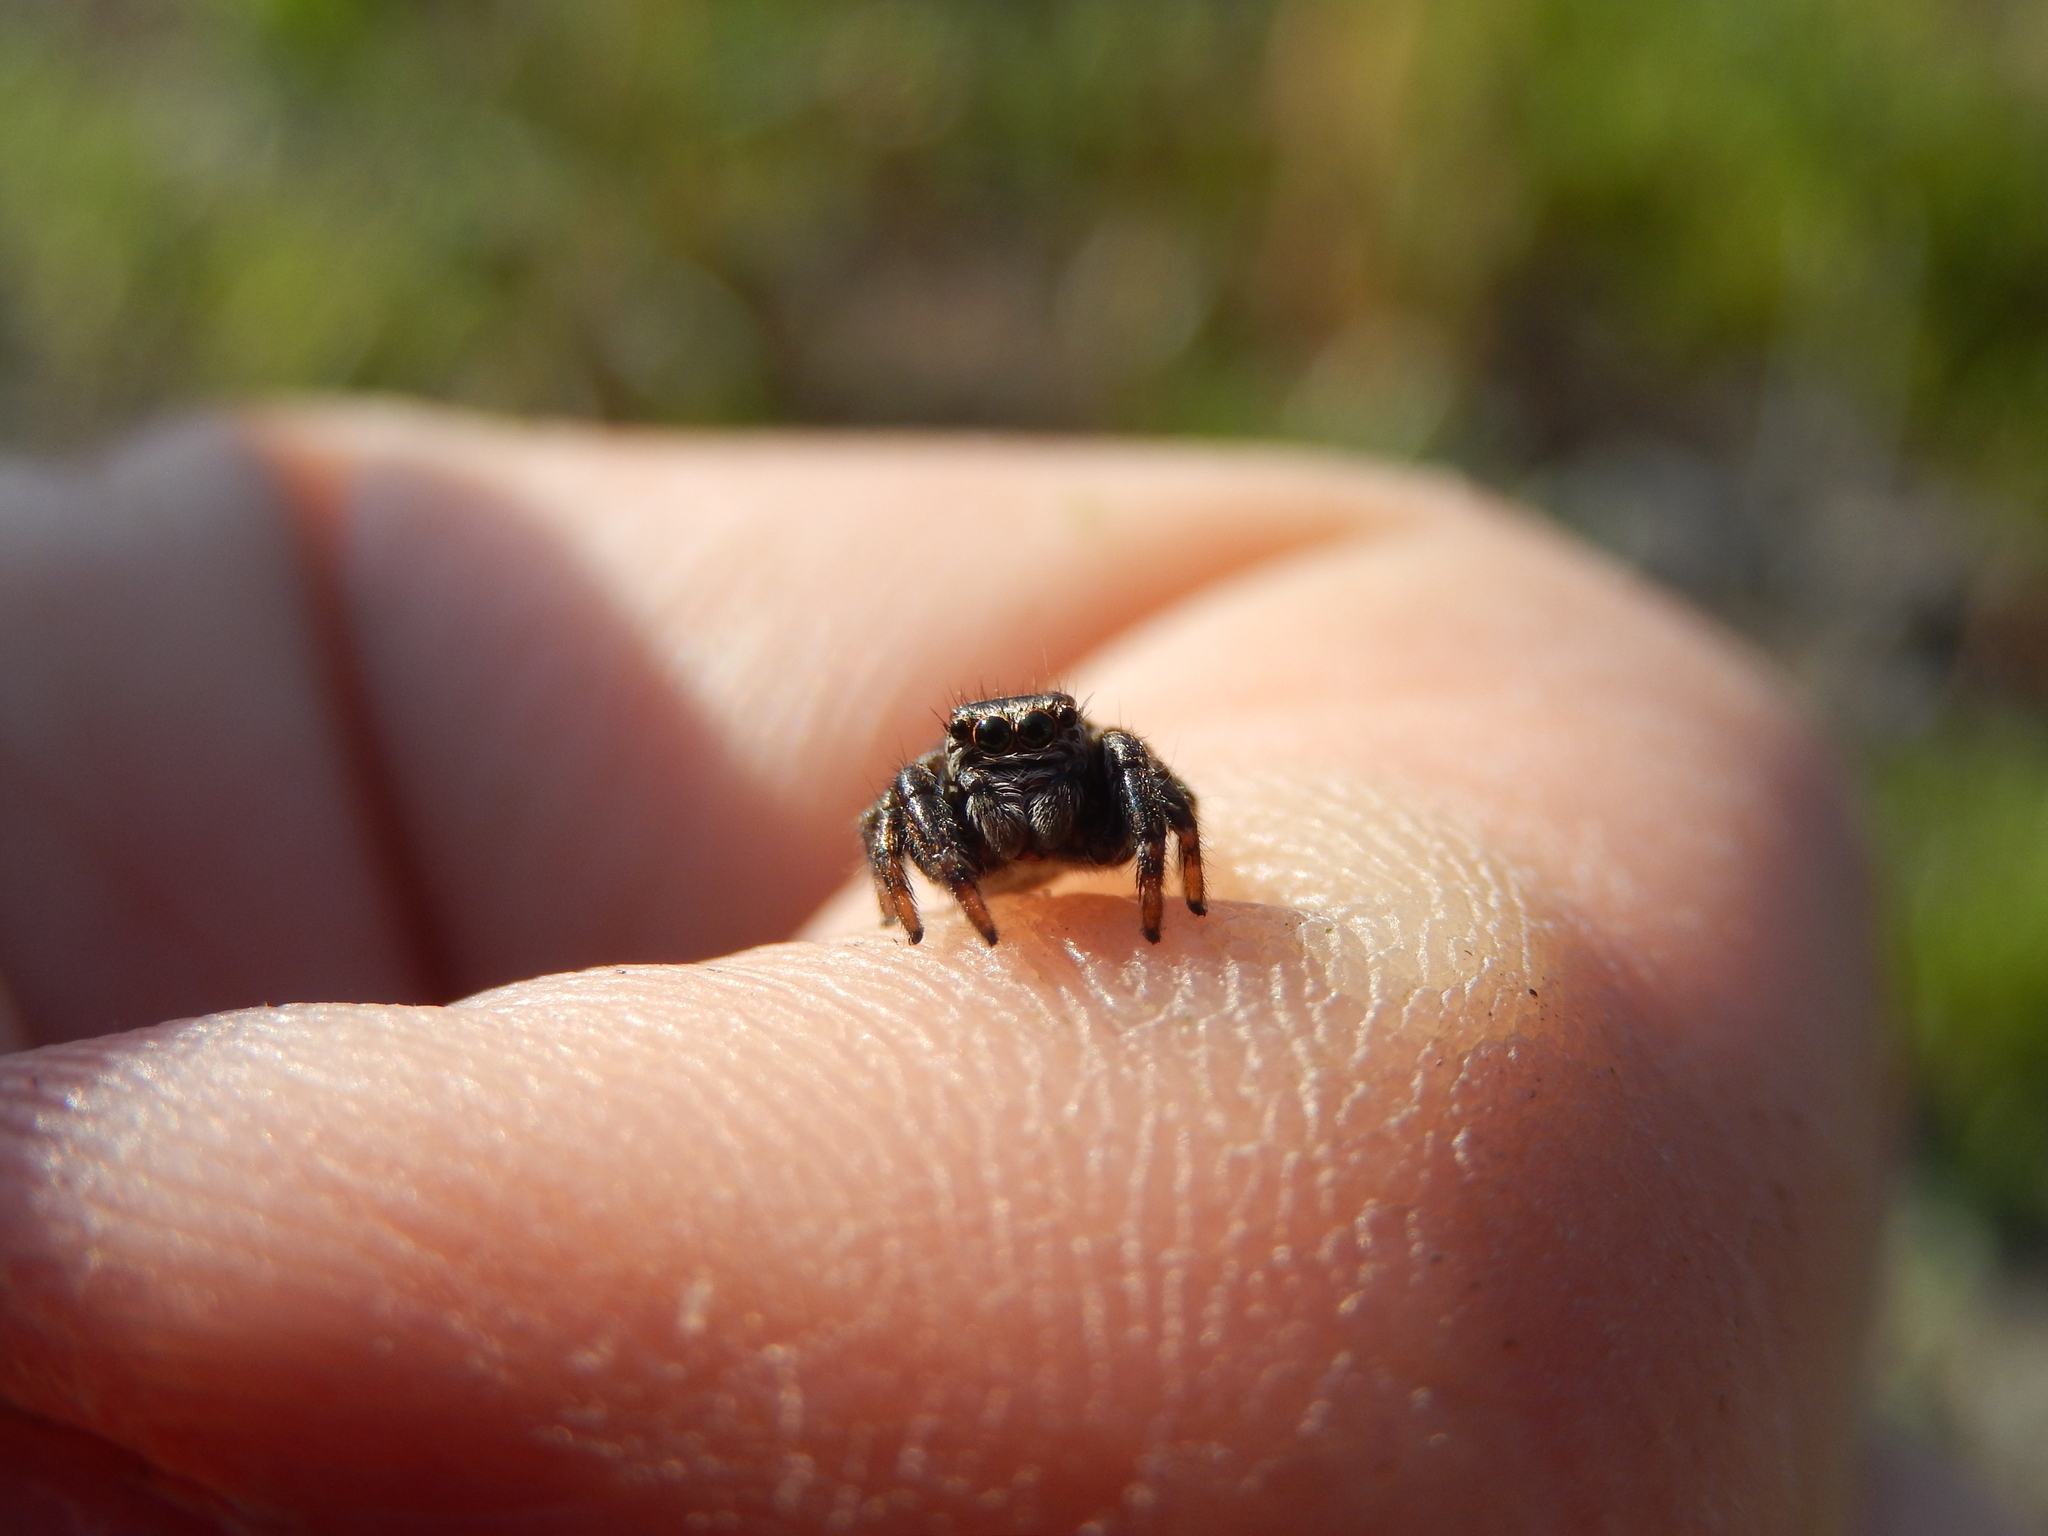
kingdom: Animalia
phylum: Arthropoda
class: Arachnida
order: Araneae
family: Salticidae
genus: Evarcha
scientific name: Evarcha arcuata
